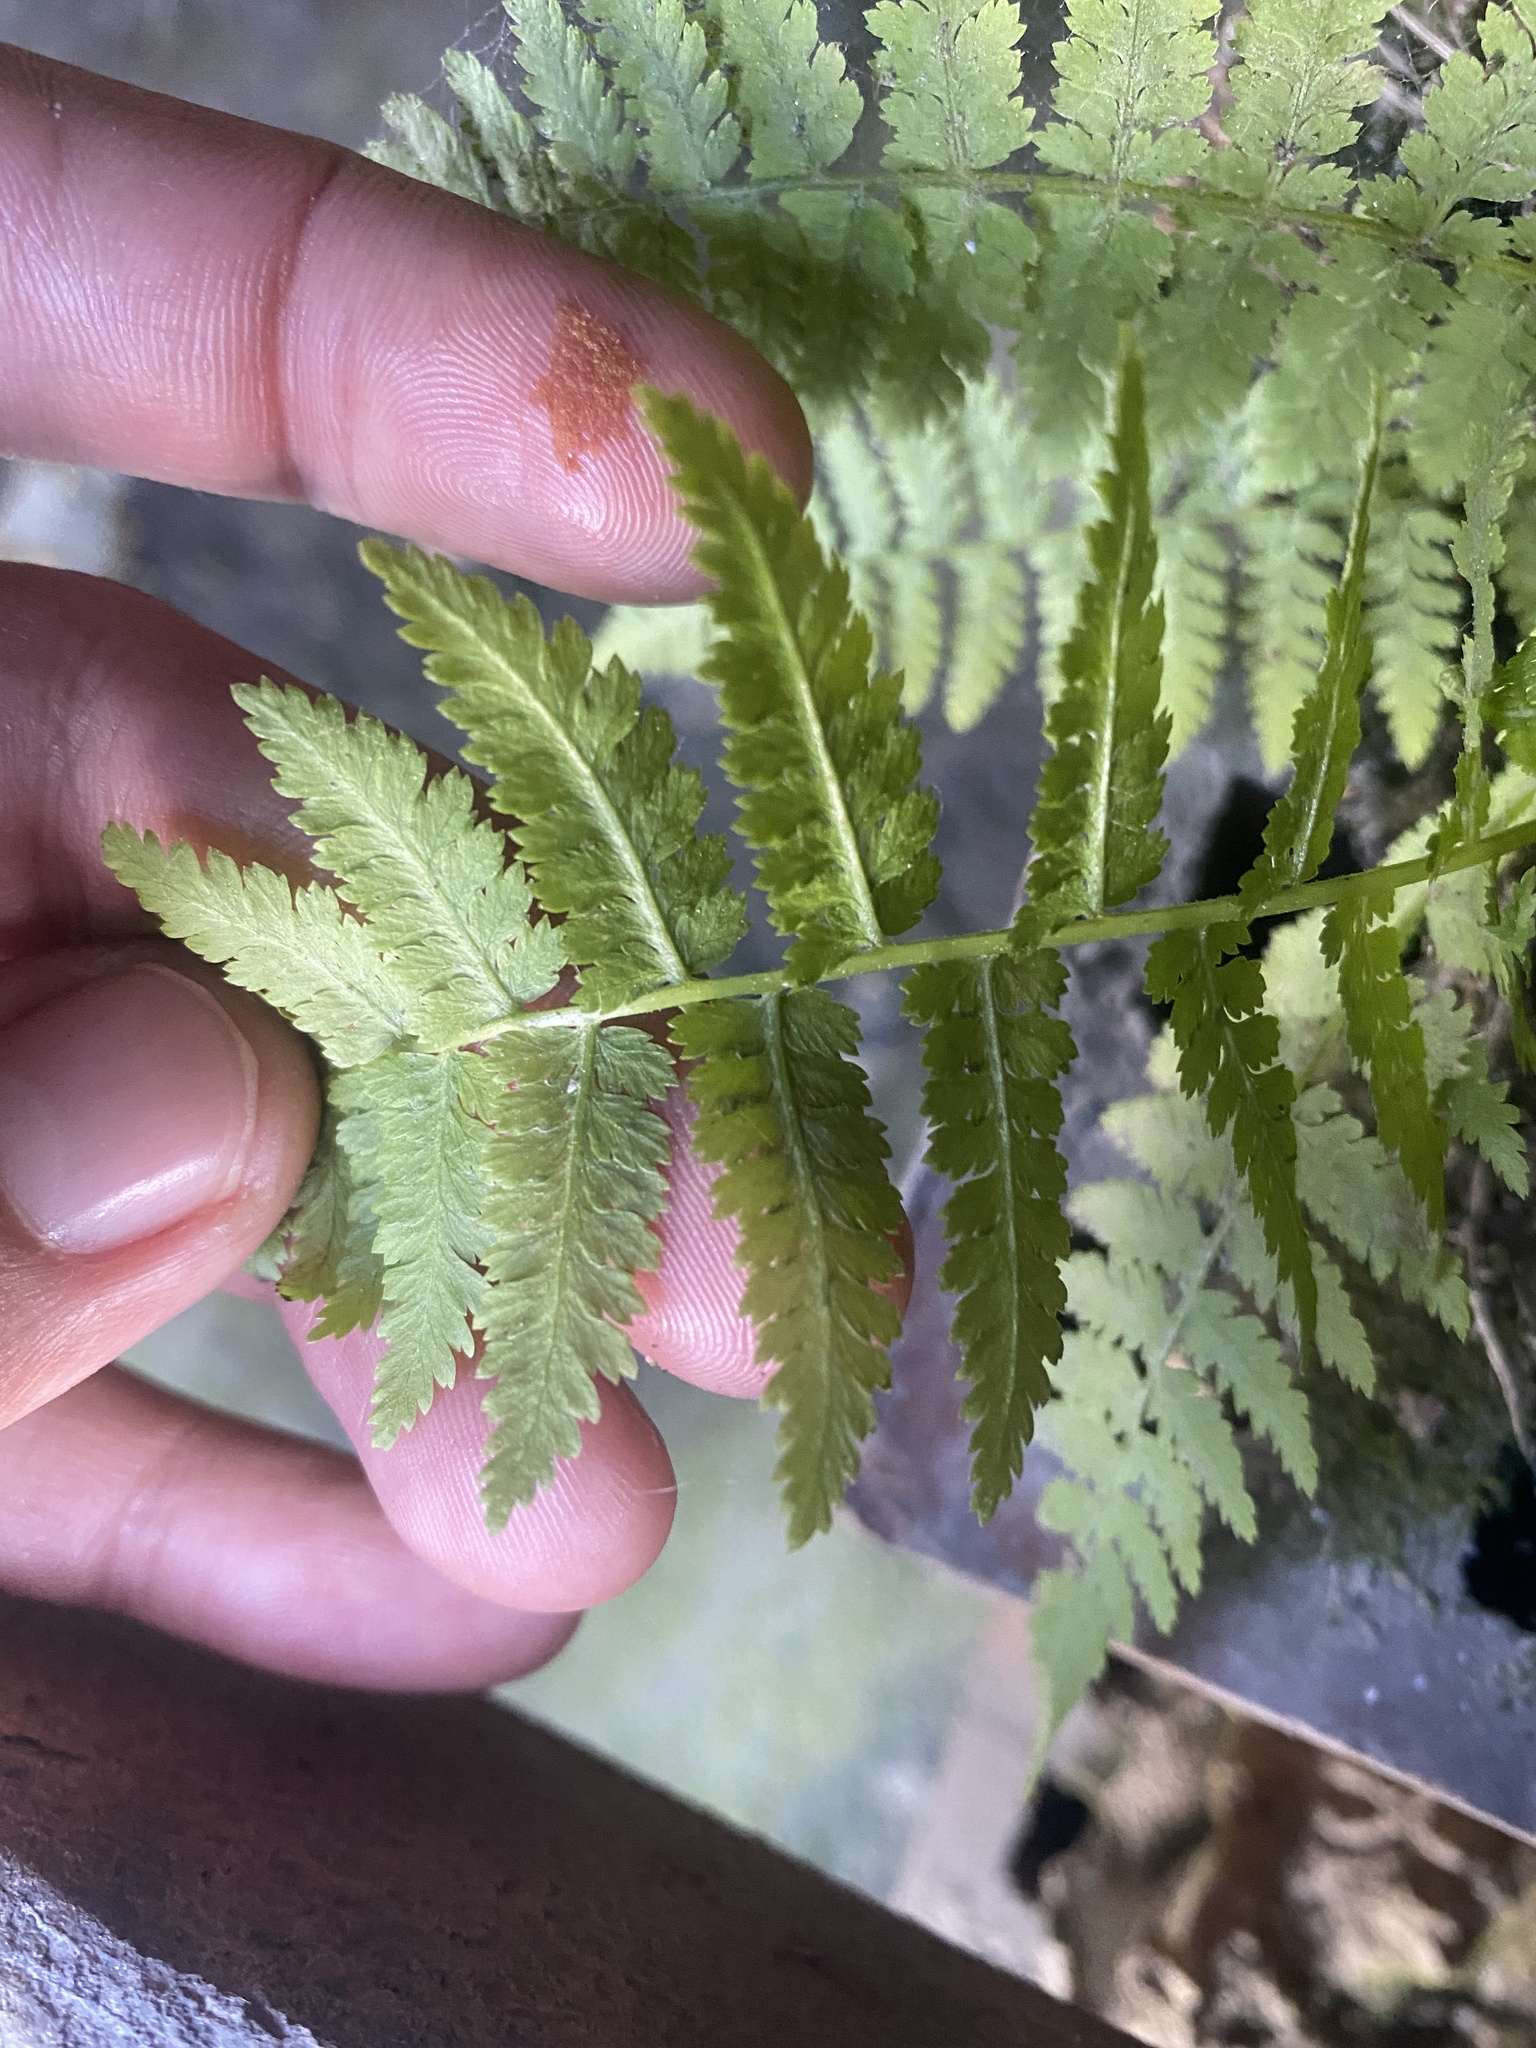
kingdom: Plantae
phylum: Tracheophyta
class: Polypodiopsida
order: Polypodiales
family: Athyriaceae
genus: Athyrium
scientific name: Athyrium filix-femina
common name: Lady fern
